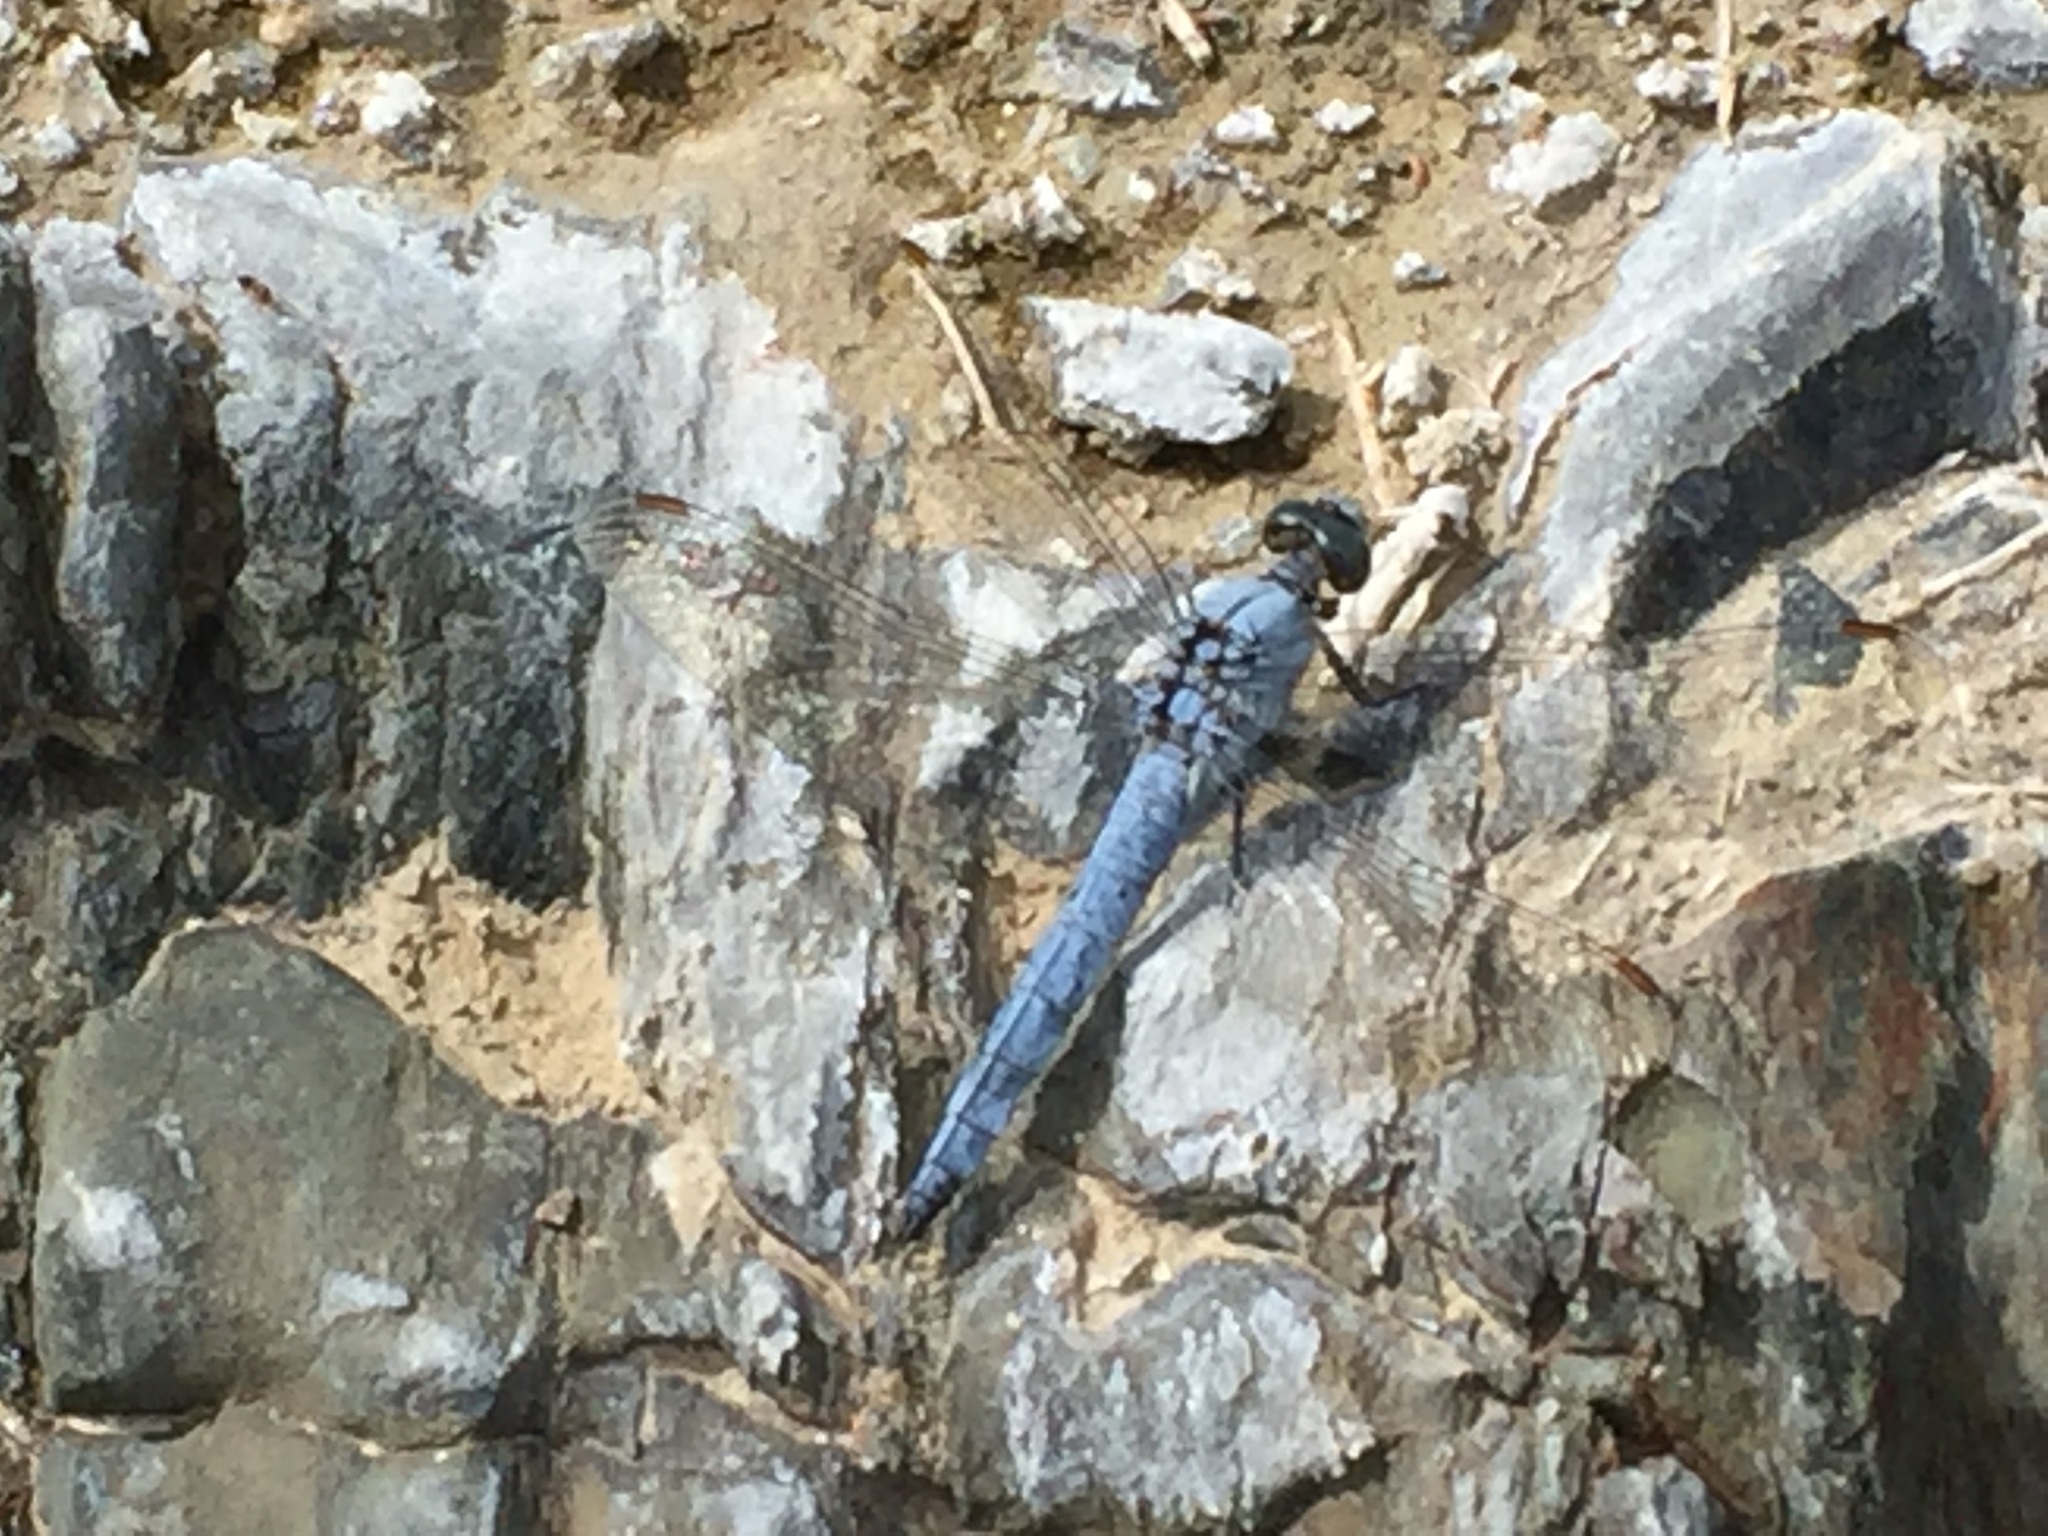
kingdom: Animalia
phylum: Arthropoda
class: Insecta
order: Odonata
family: Libellulidae
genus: Orthetrum
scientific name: Orthetrum brunneum
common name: Southern skimmer
